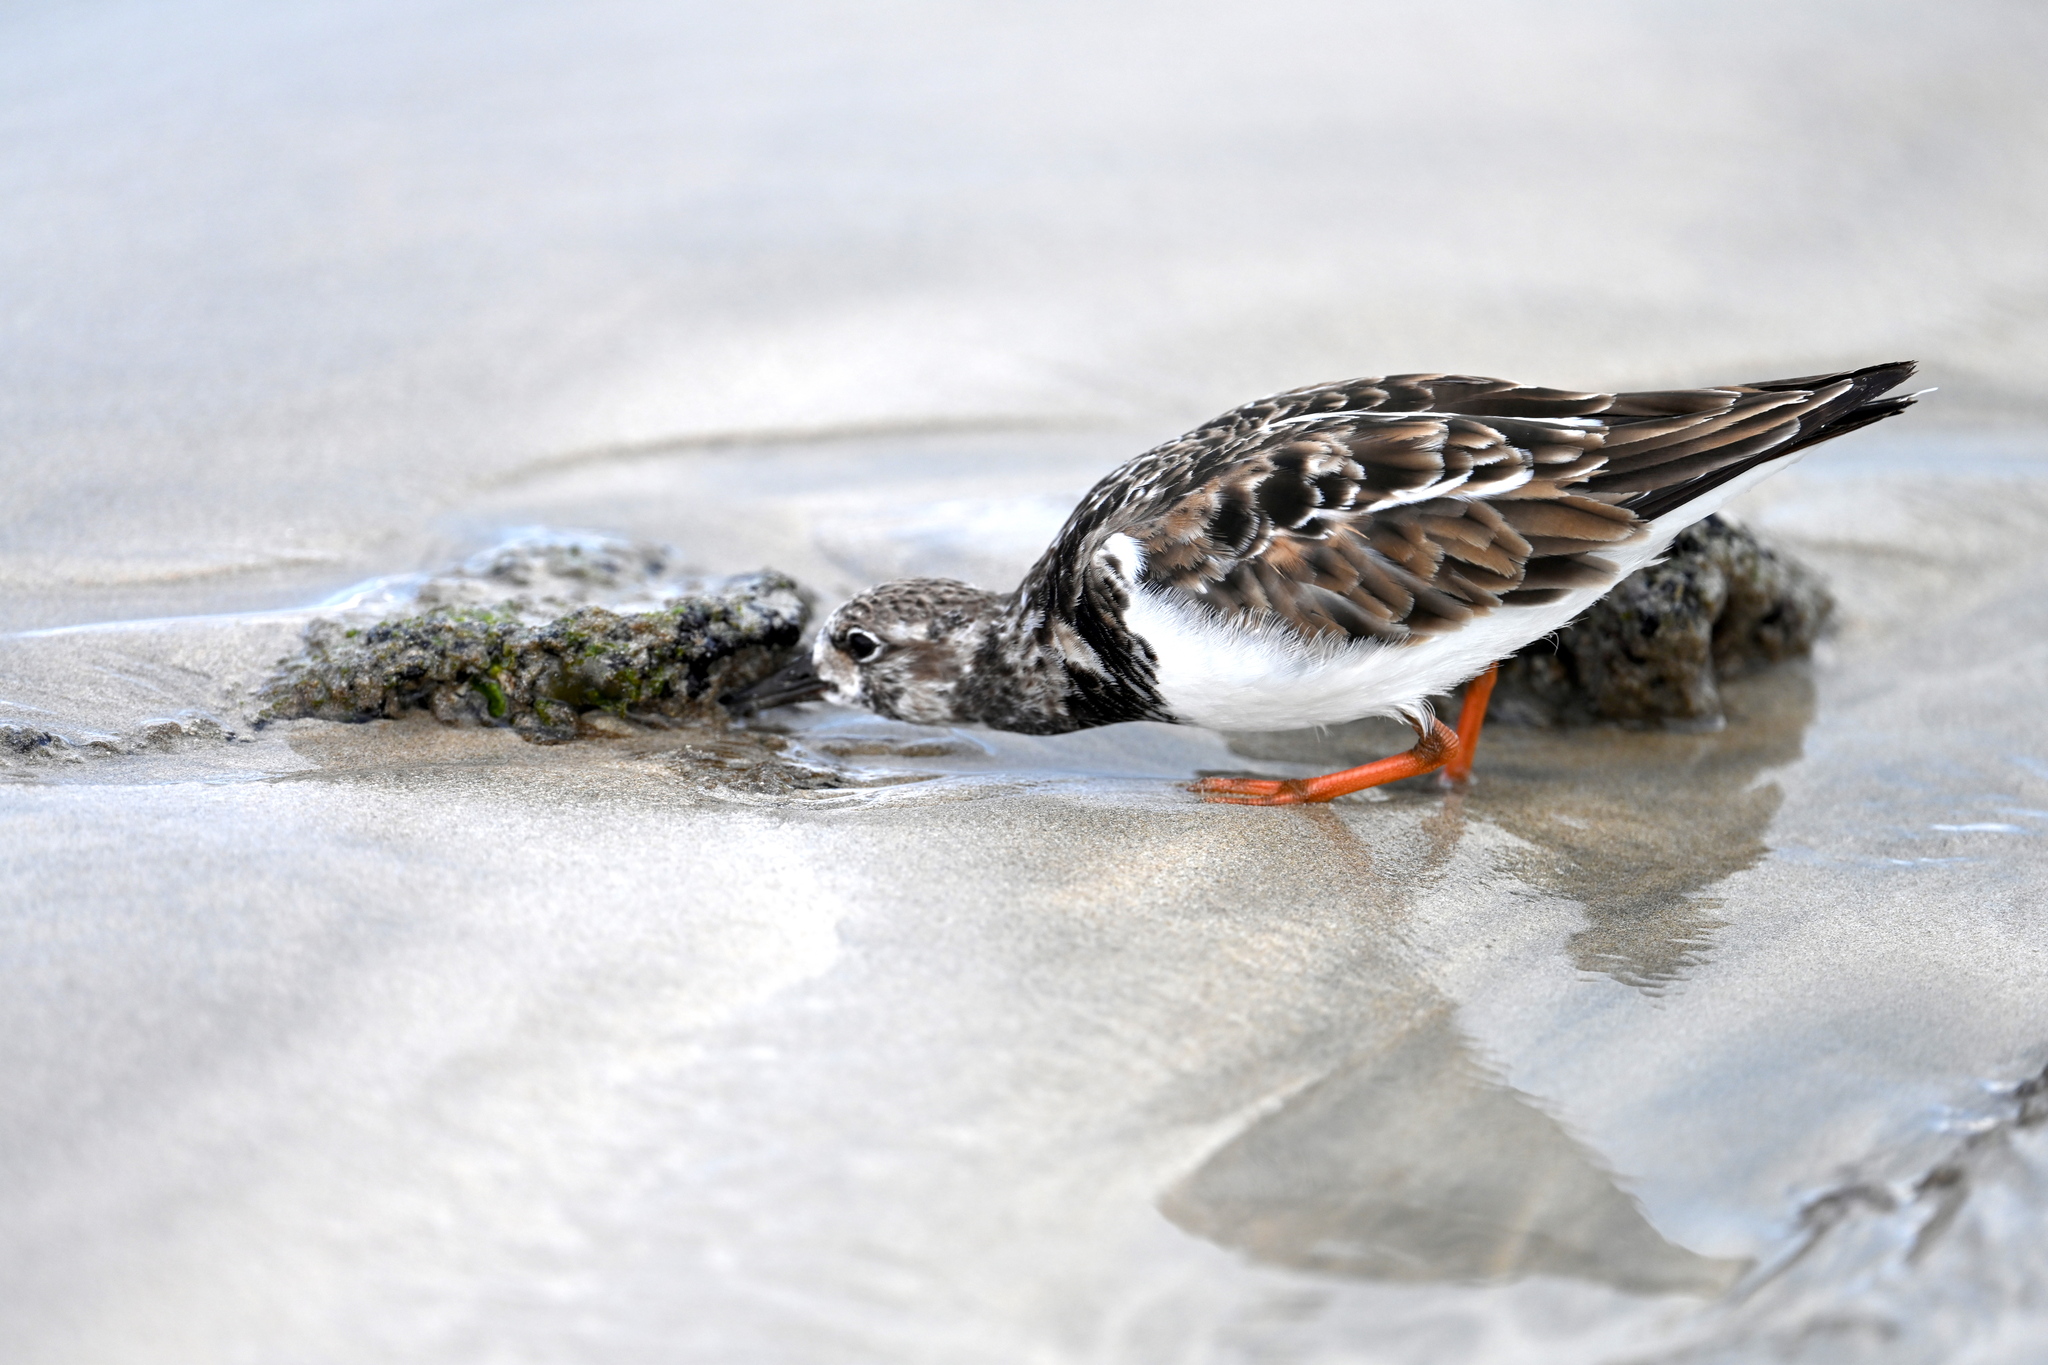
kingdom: Animalia
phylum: Chordata
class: Aves
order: Charadriiformes
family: Scolopacidae
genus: Arenaria
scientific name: Arenaria interpres
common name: Ruddy turnstone
